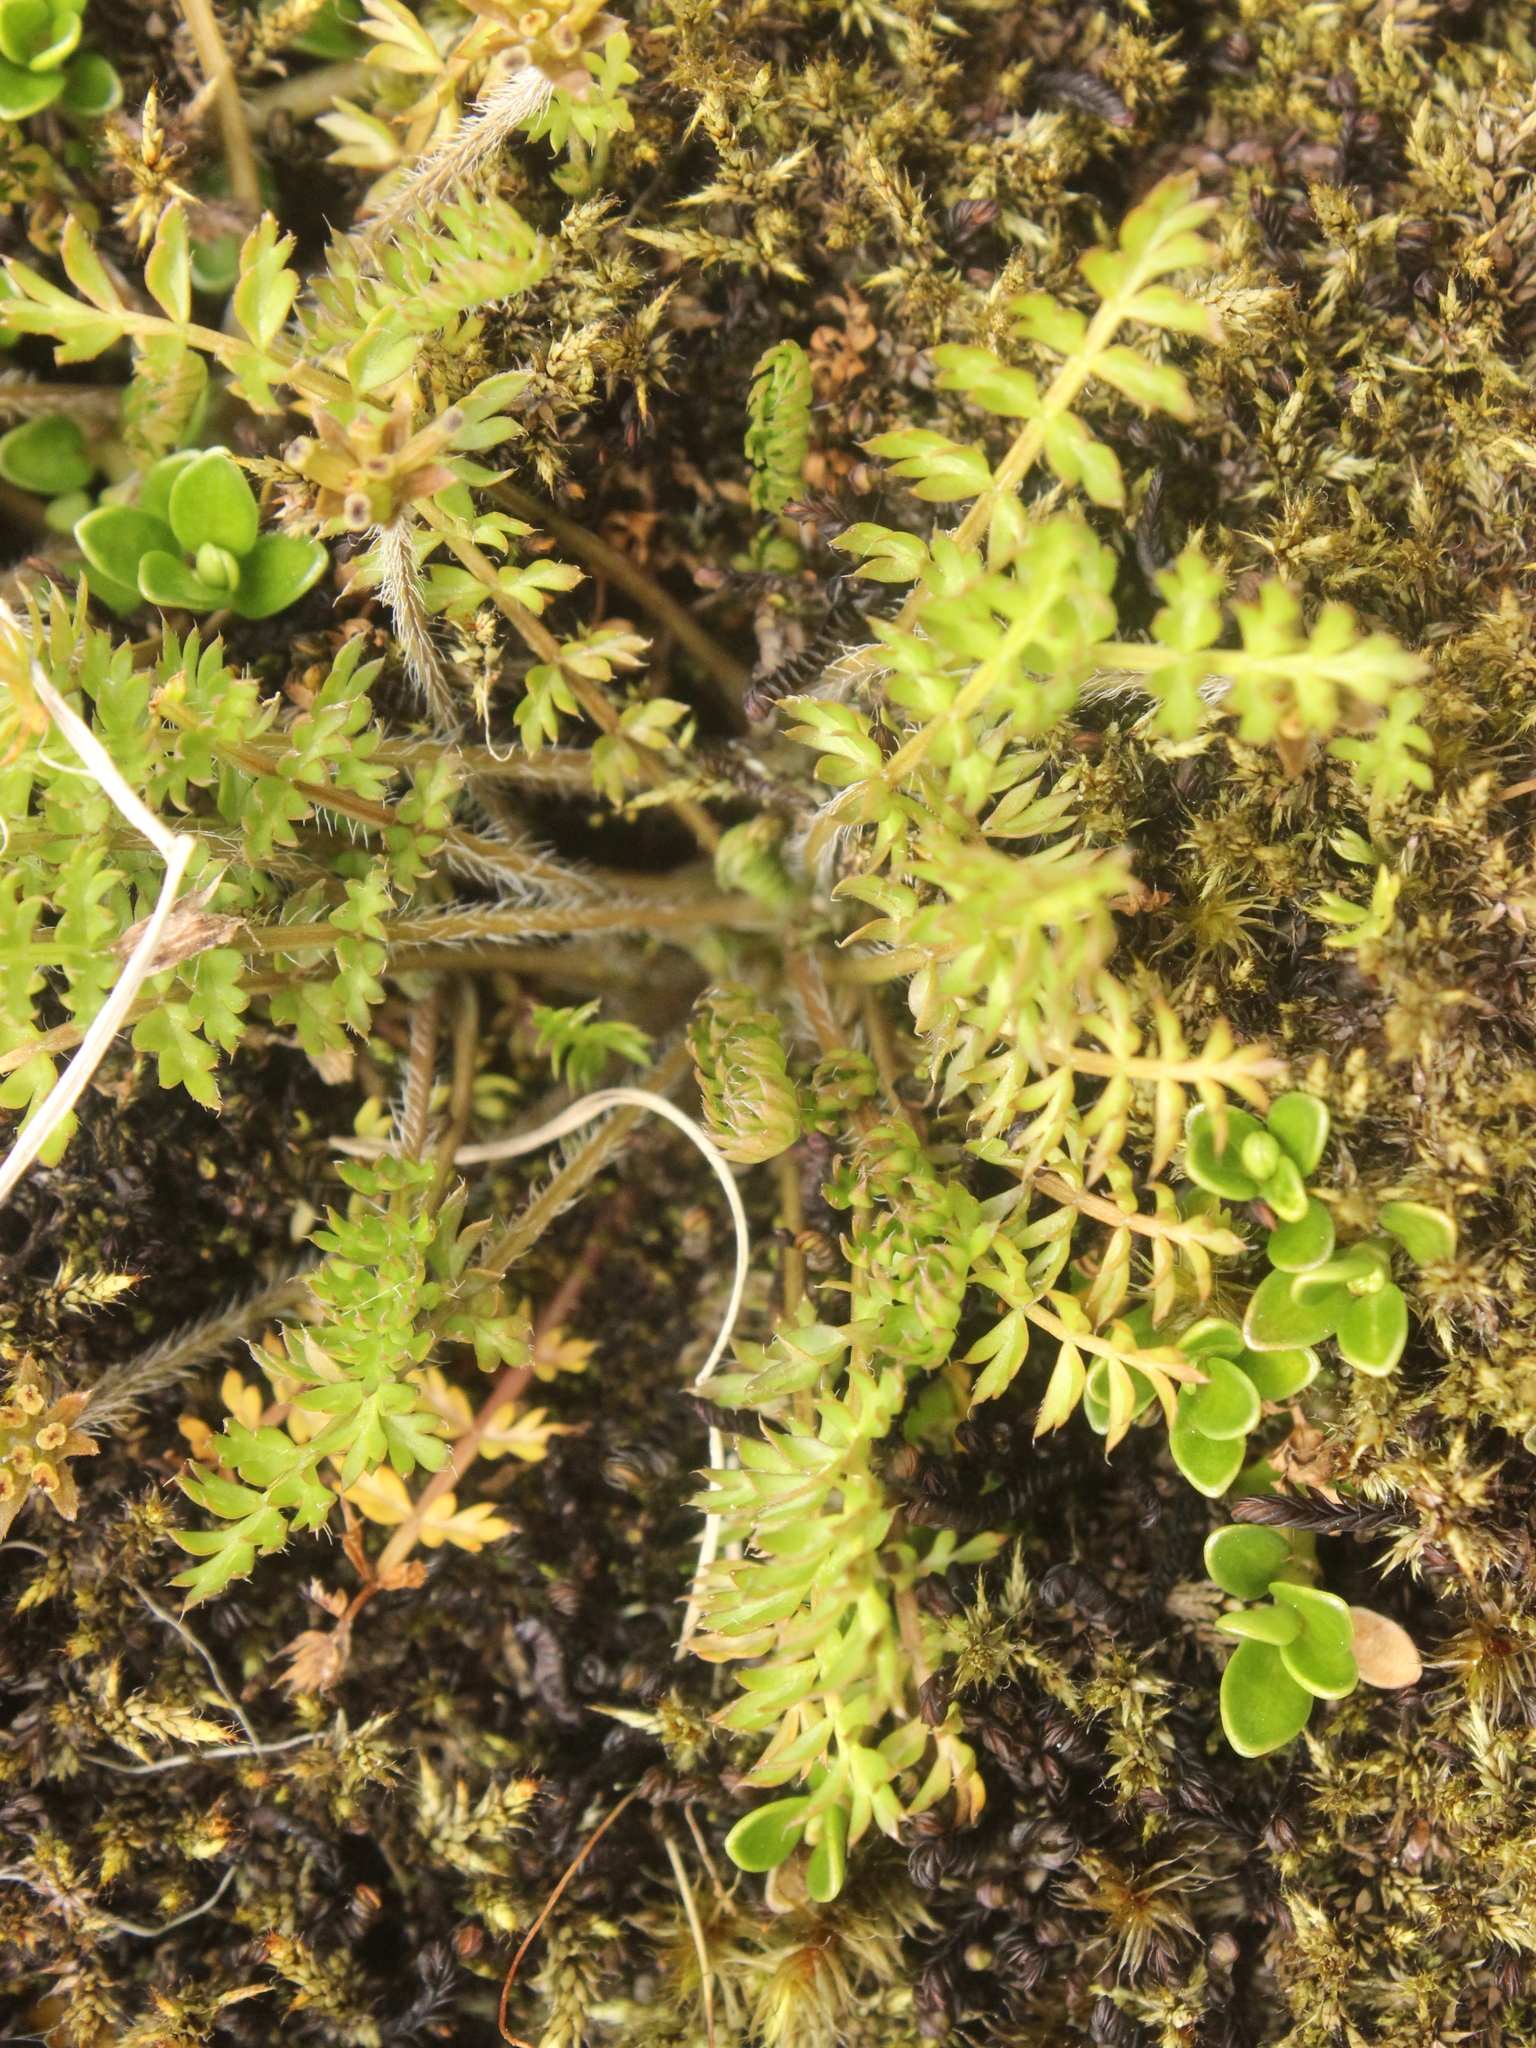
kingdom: Plantae
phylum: Tracheophyta
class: Magnoliopsida
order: Apiales
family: Apiaceae
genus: Chaerophyllum
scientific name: Chaerophyllum colensoi
